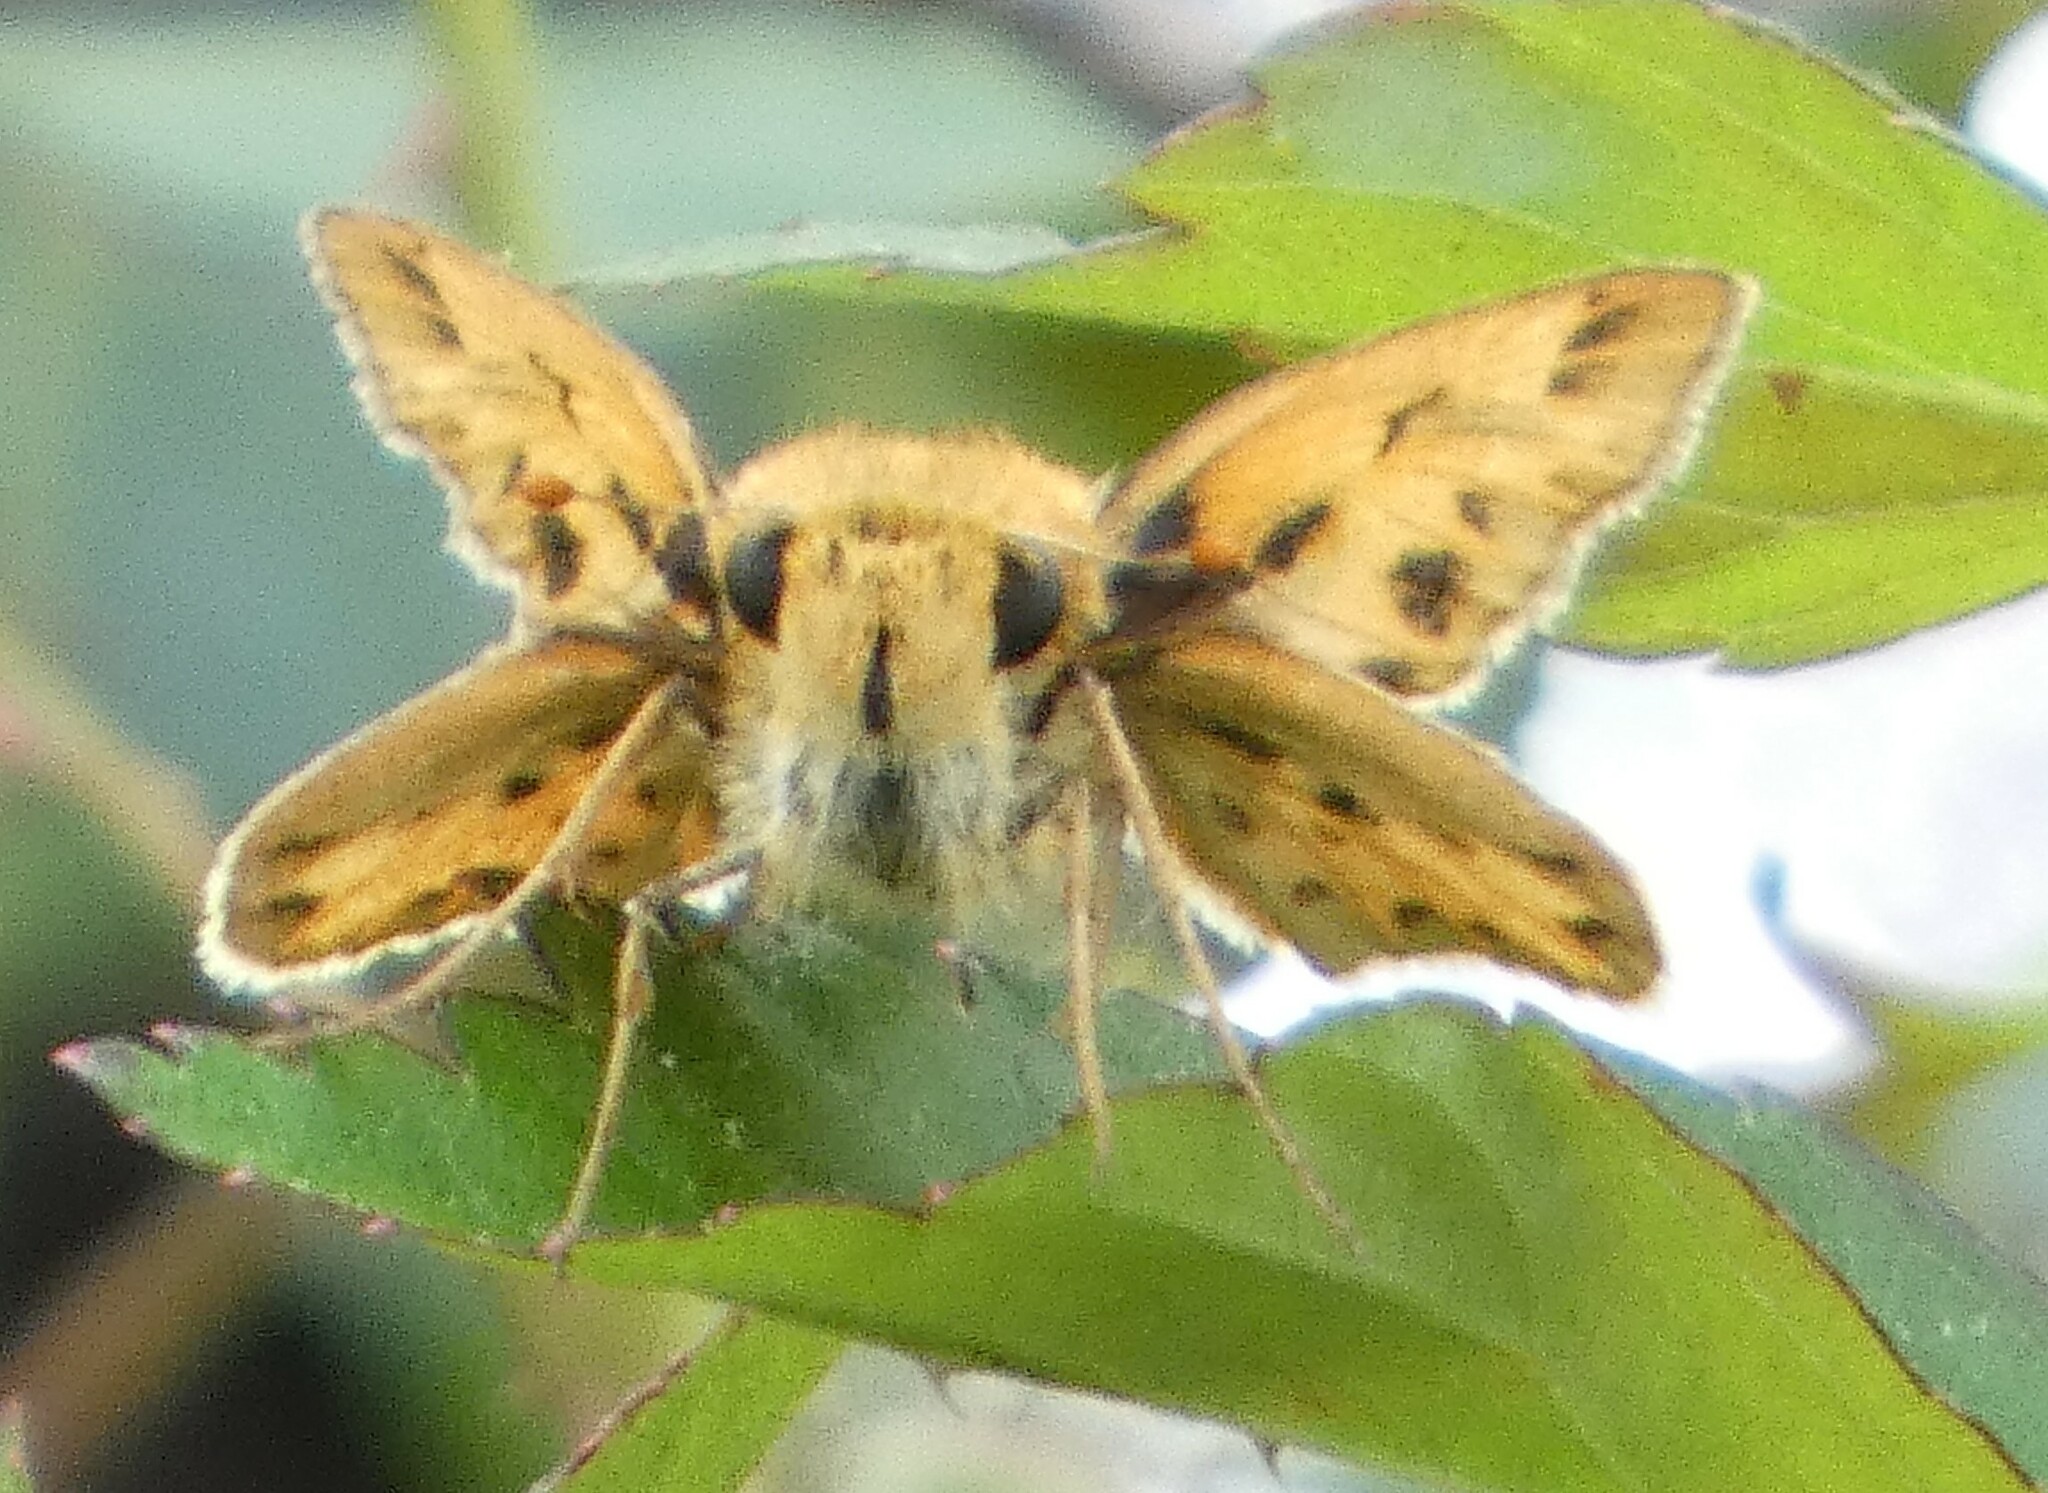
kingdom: Animalia
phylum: Arthropoda
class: Insecta
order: Lepidoptera
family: Hesperiidae
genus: Hylephila
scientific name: Hylephila phyleus
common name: Fiery skipper
